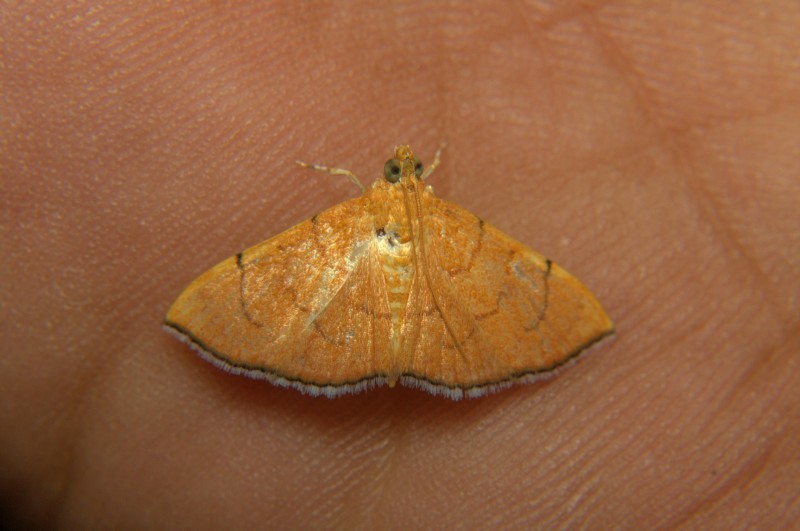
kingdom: Animalia
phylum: Arthropoda
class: Insecta
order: Lepidoptera
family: Crambidae
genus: Hyalobathra
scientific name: Hyalobathra opheltisalis
